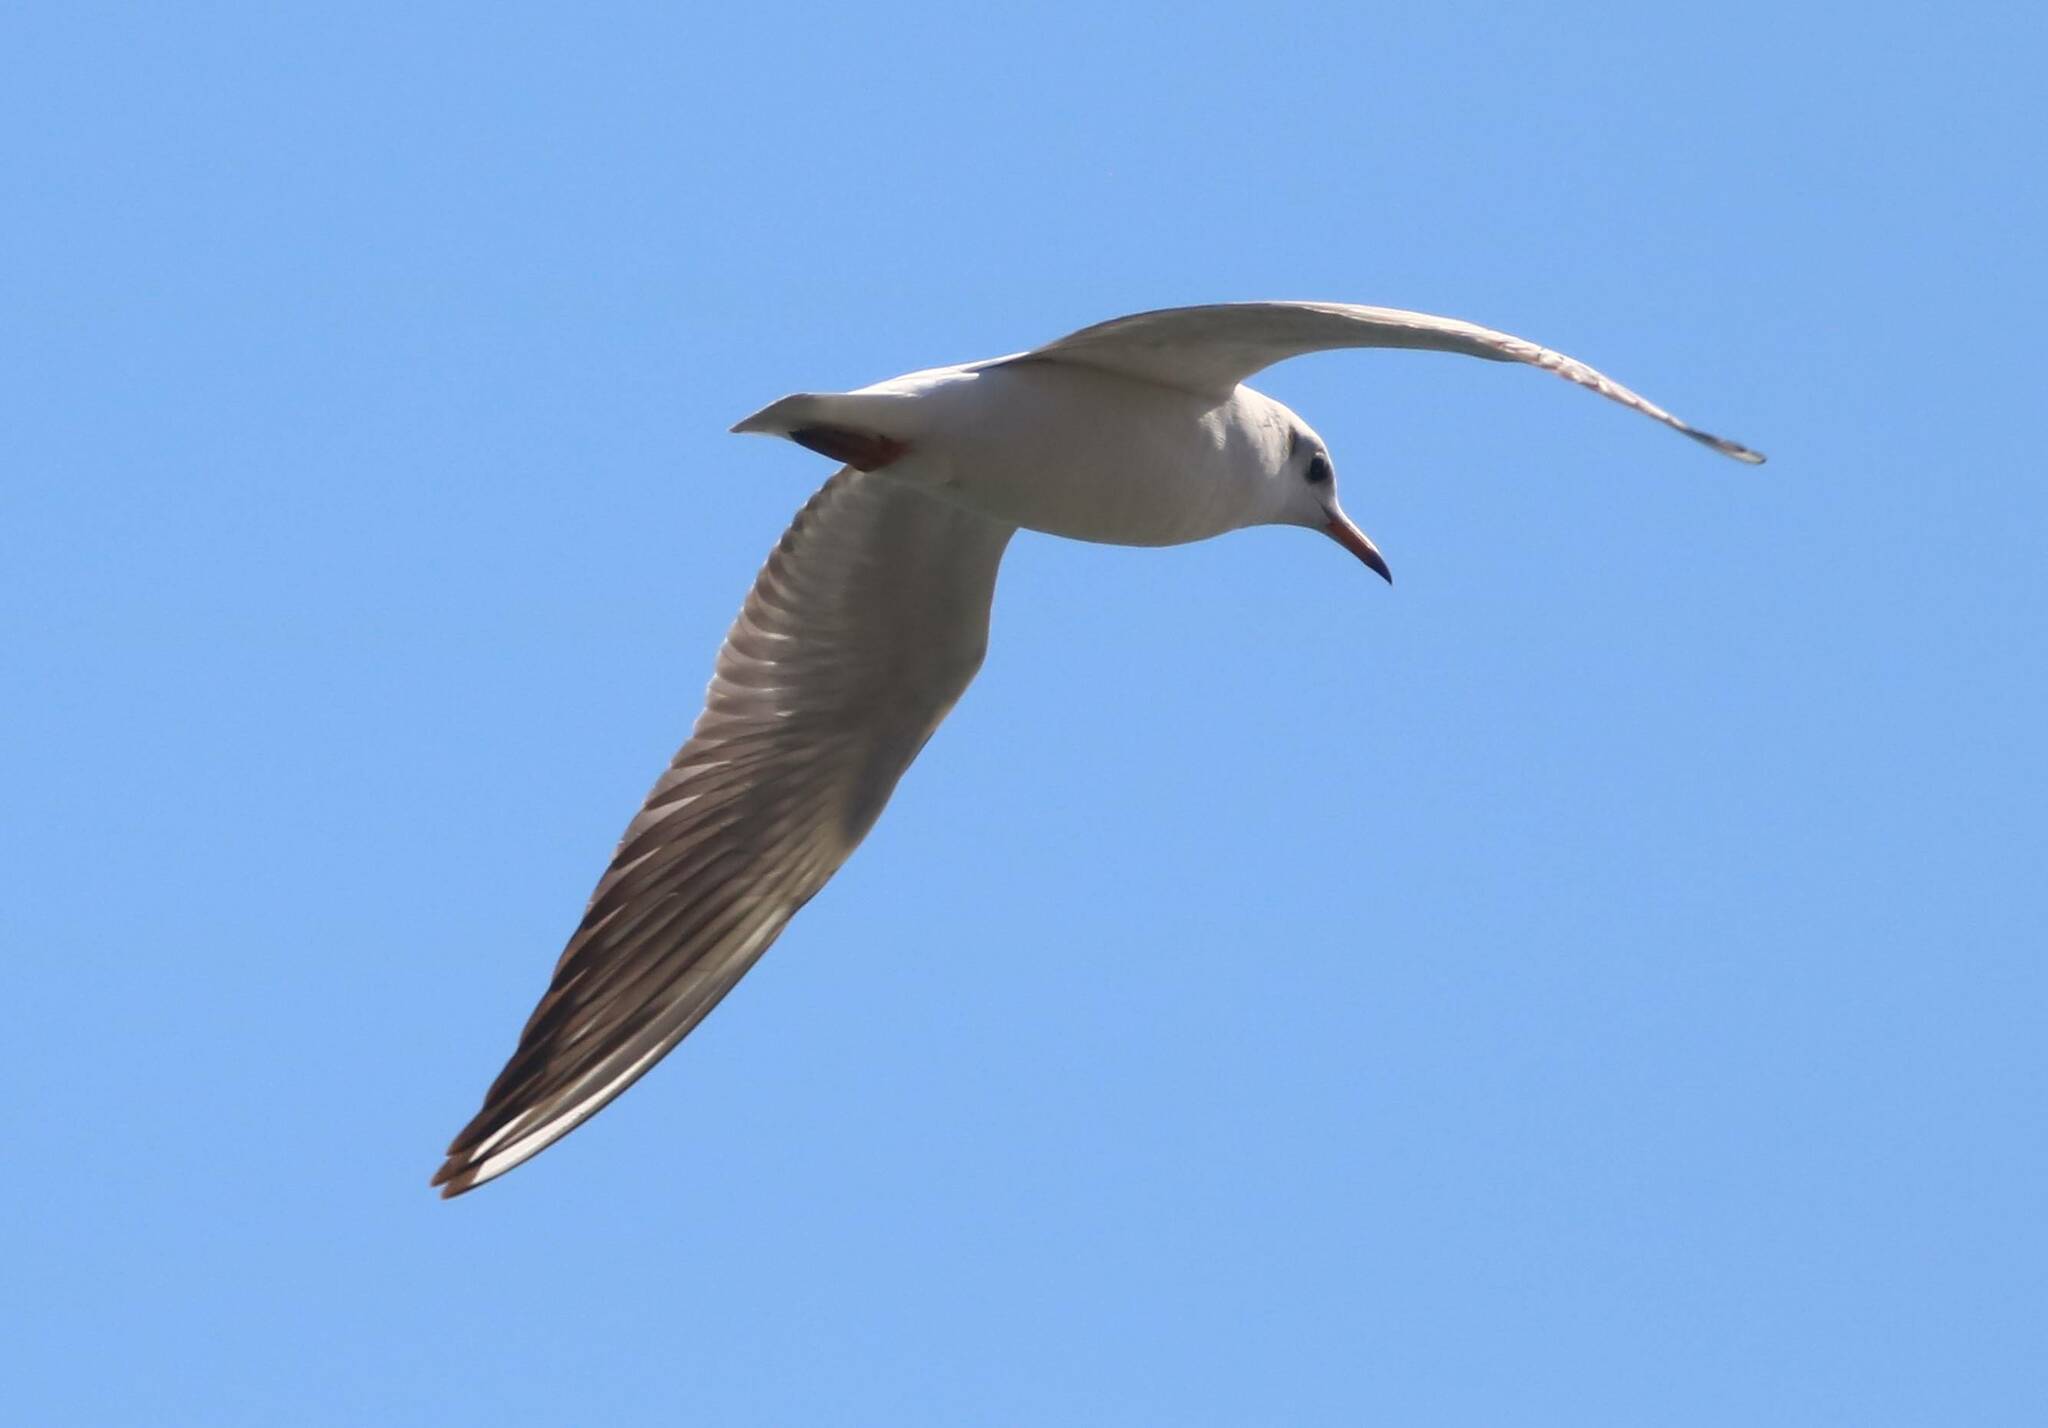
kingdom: Animalia
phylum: Chordata
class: Aves
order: Charadriiformes
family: Laridae
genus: Chroicocephalus
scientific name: Chroicocephalus ridibundus
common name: Black-headed gull
